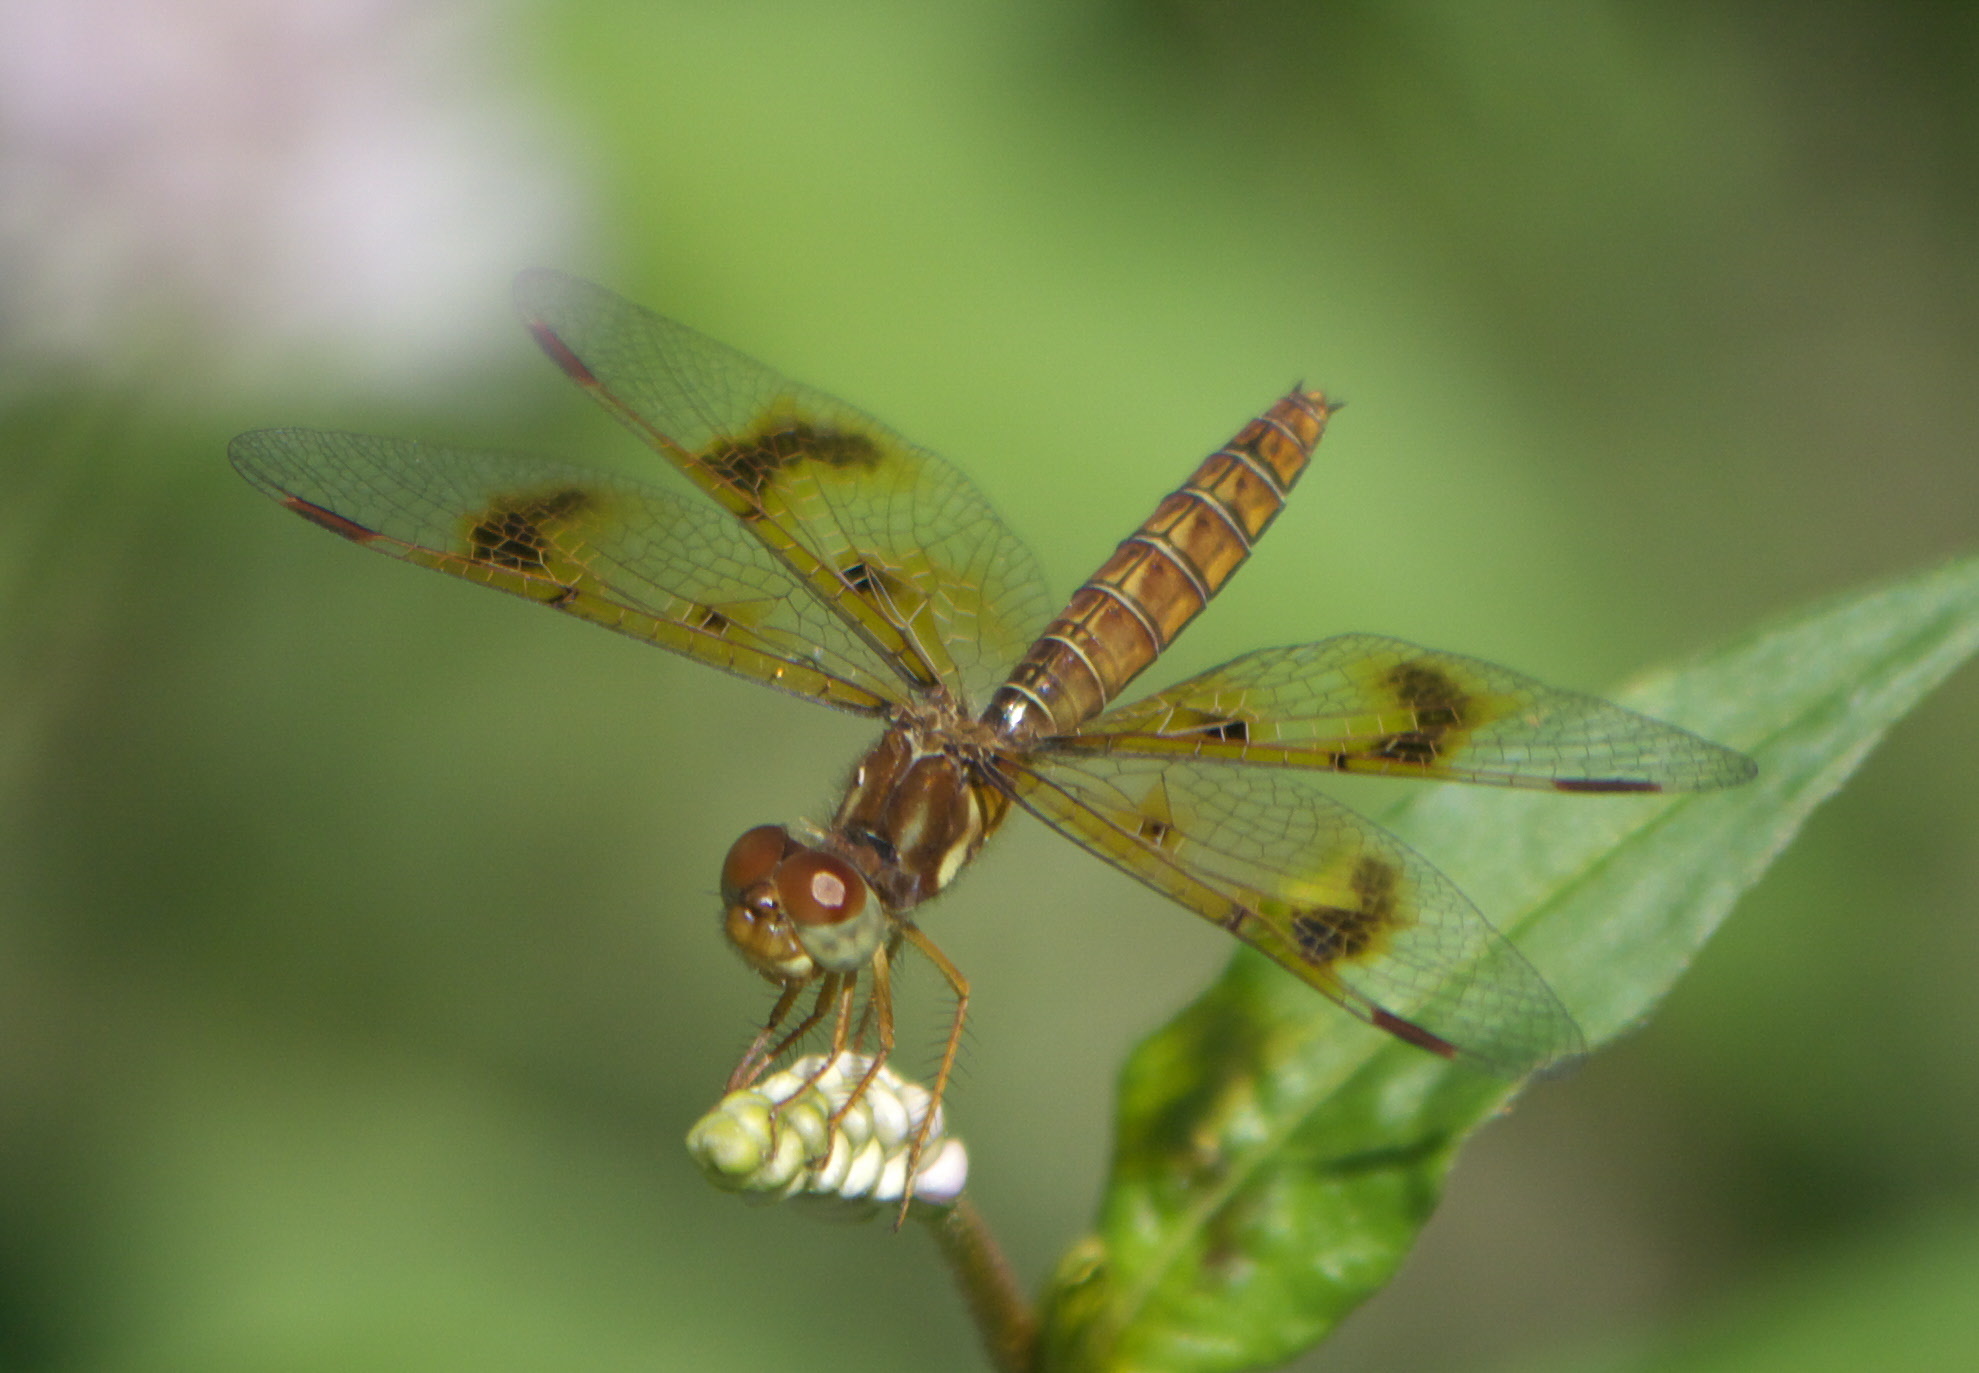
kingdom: Animalia
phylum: Arthropoda
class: Insecta
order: Odonata
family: Libellulidae
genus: Perithemis
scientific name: Perithemis tenera
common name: Eastern amberwing
